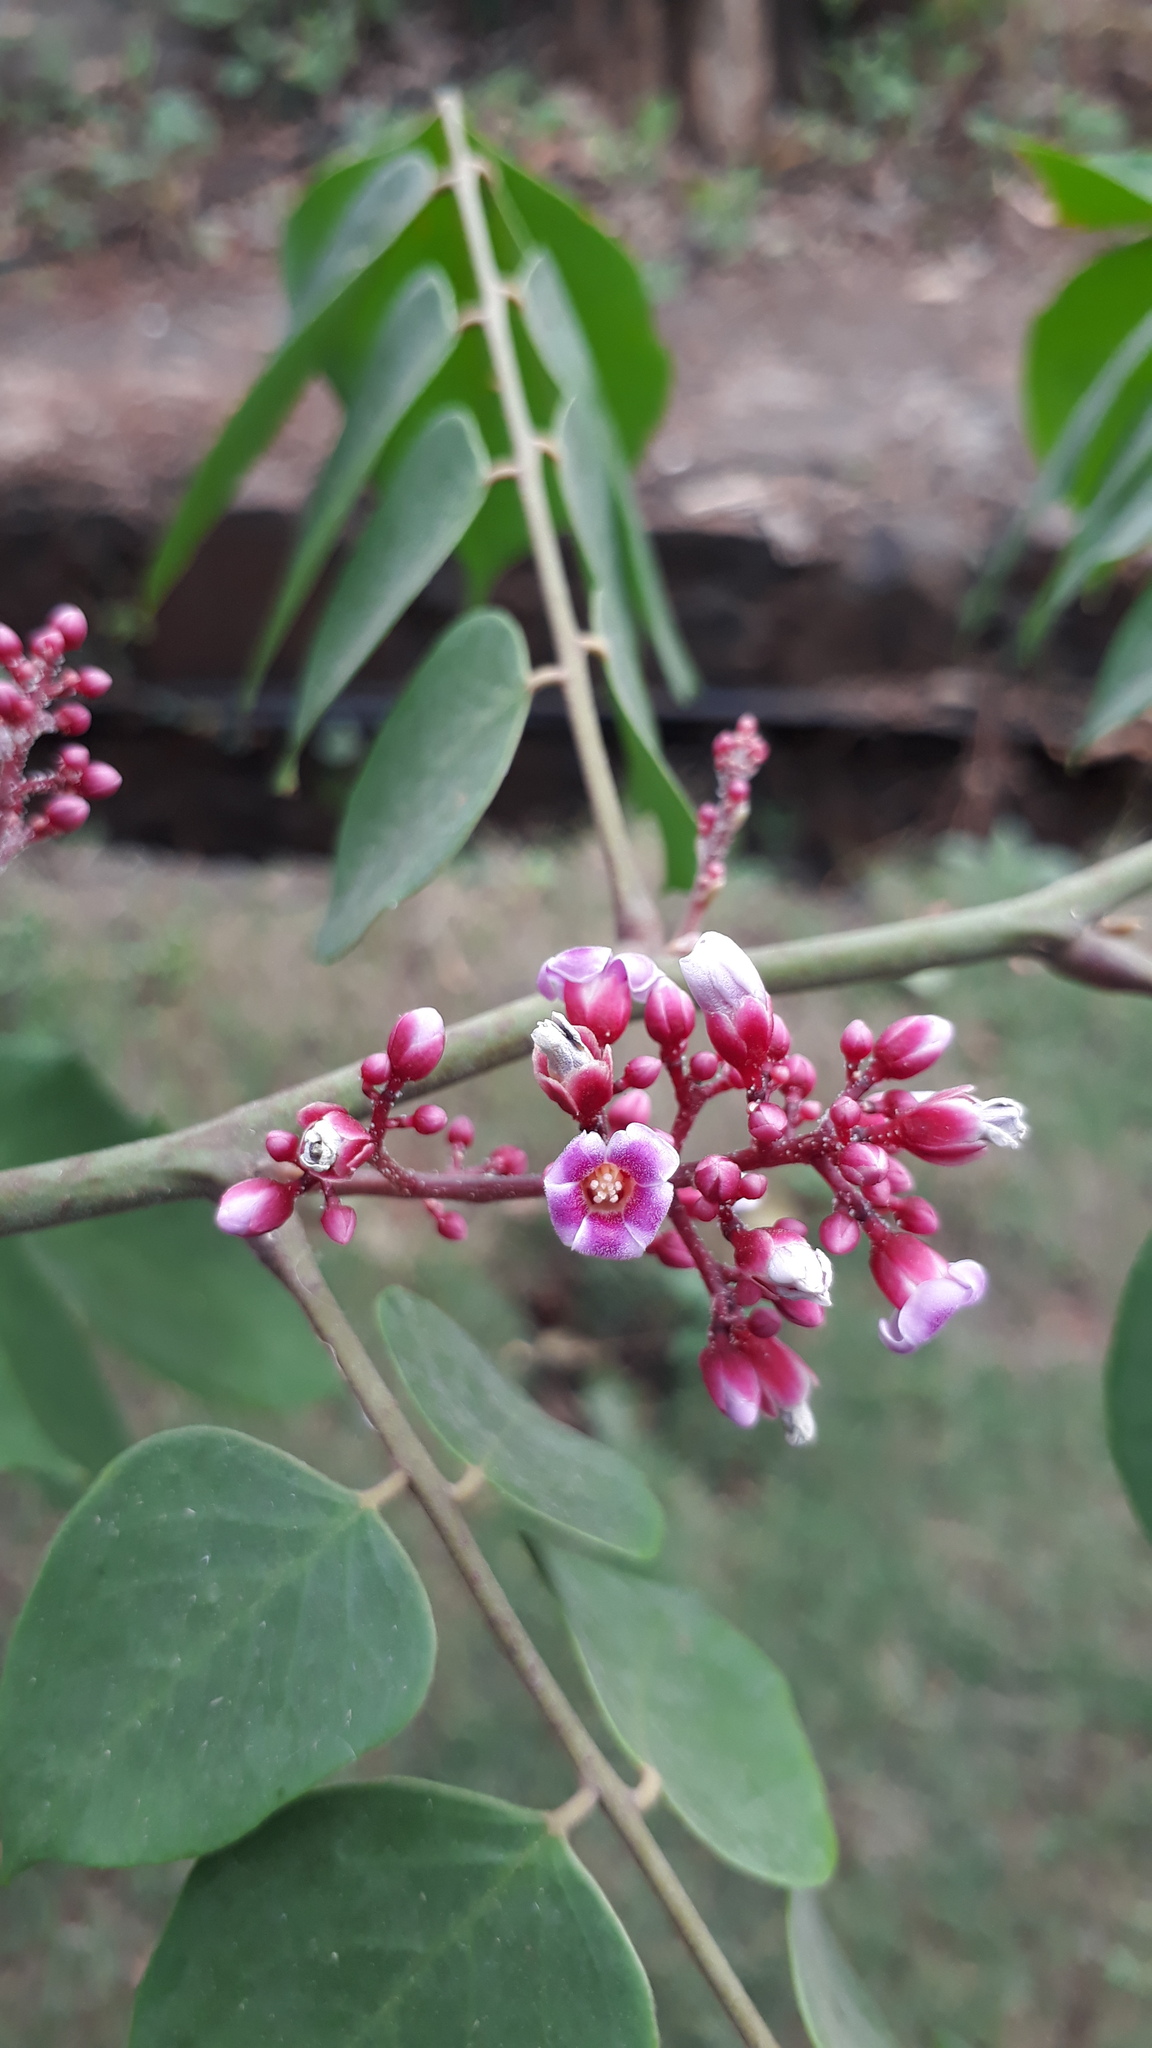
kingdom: Plantae
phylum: Tracheophyta
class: Magnoliopsida
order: Oxalidales
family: Oxalidaceae
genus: Averrhoa
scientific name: Averrhoa carambola
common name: Blimbing
